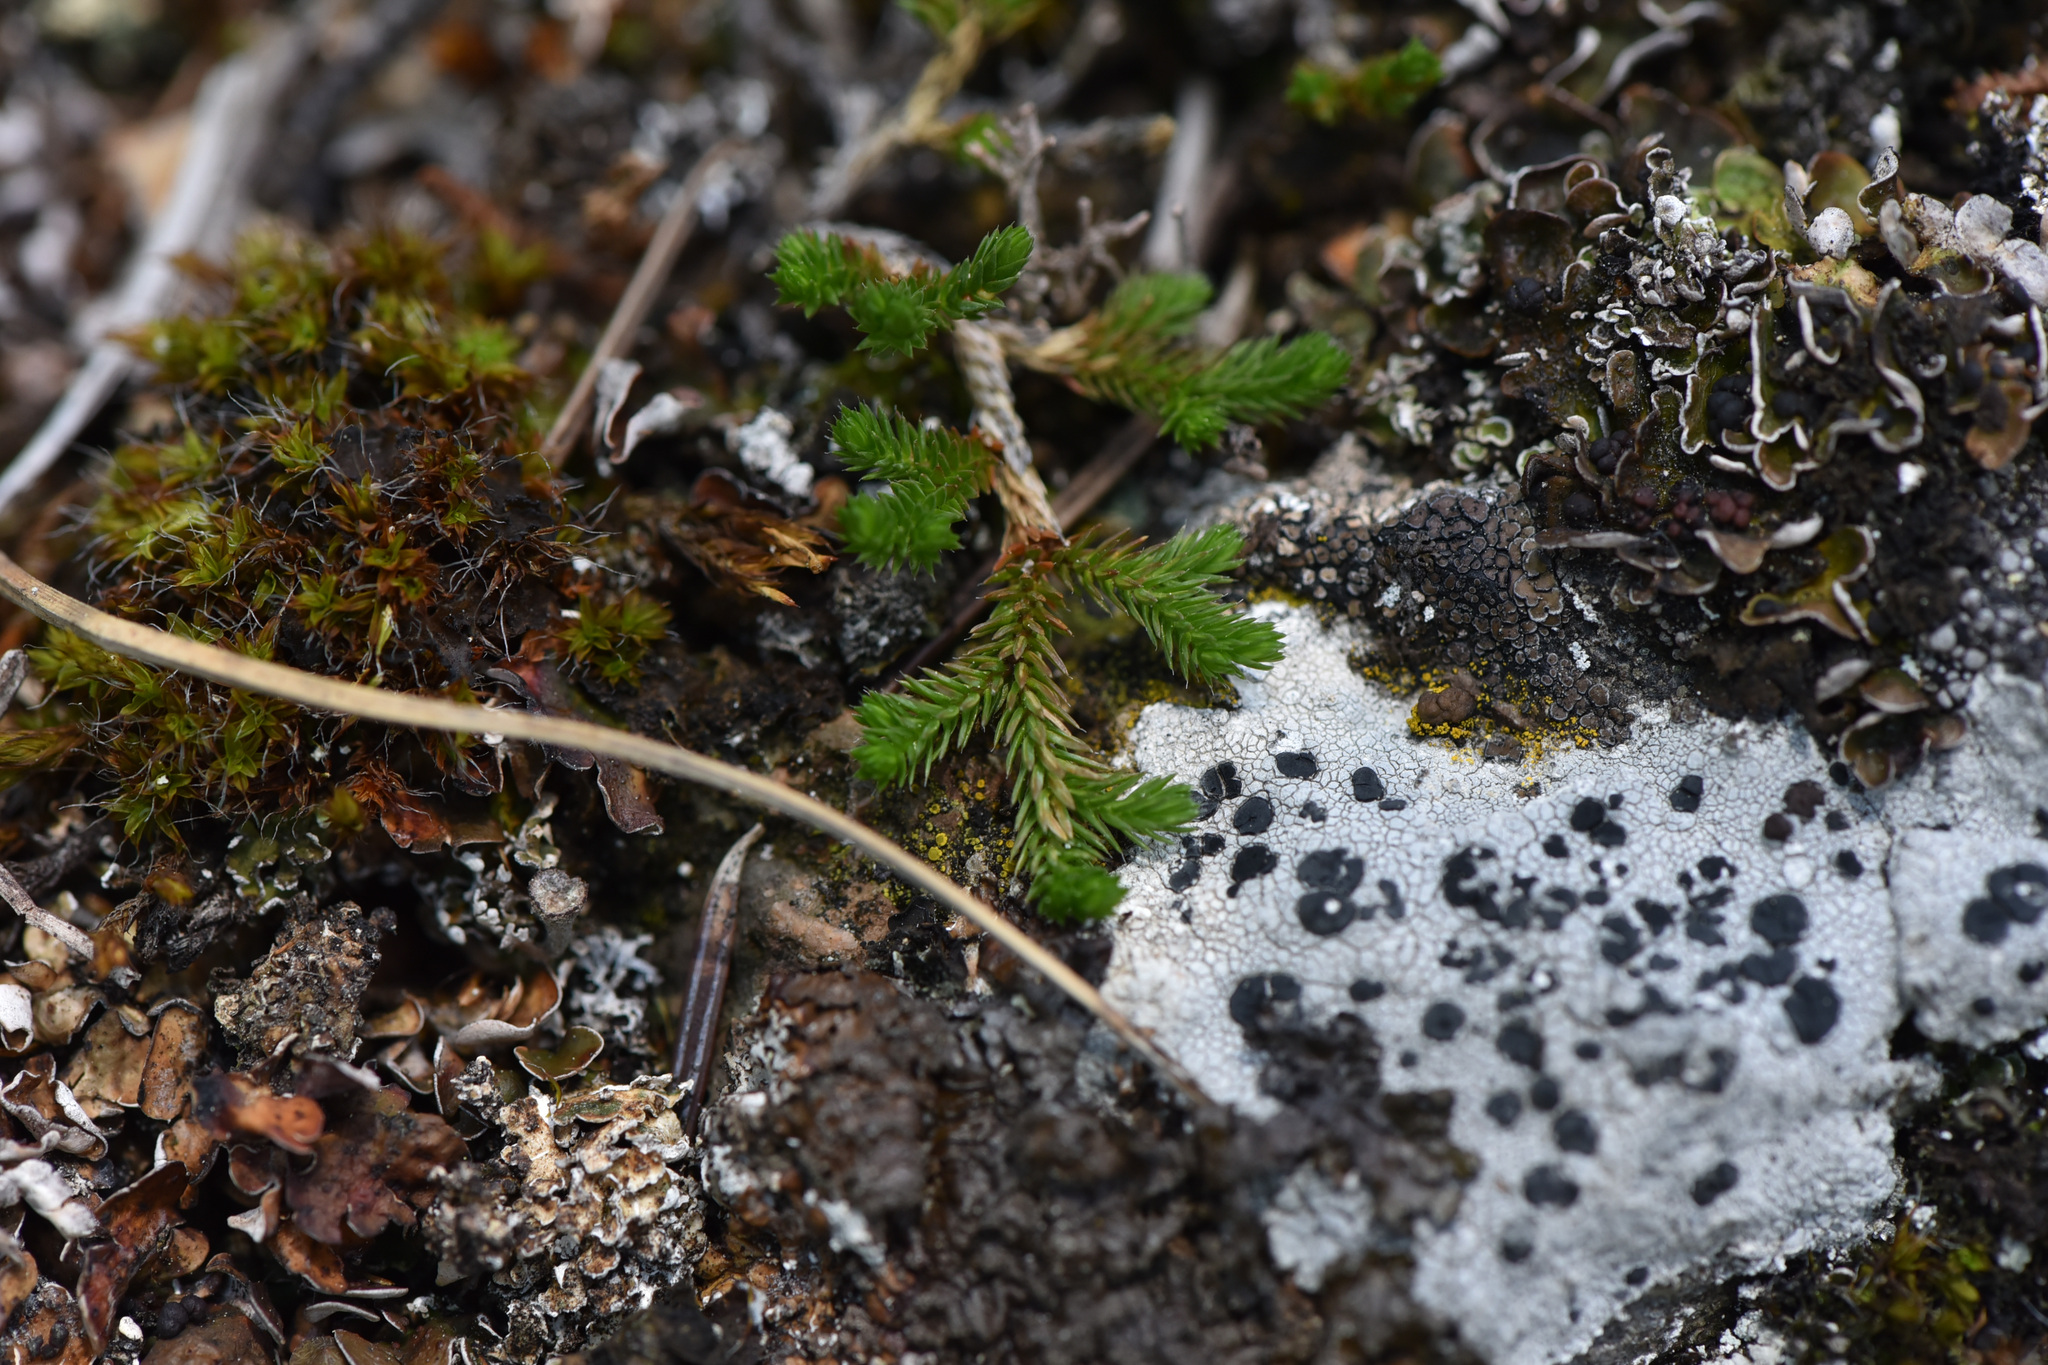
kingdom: Plantae
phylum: Tracheophyta
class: Lycopodiopsida
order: Selaginellales
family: Selaginellaceae
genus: Selaginella
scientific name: Selaginella wallacei
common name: Wallace's selaginella
